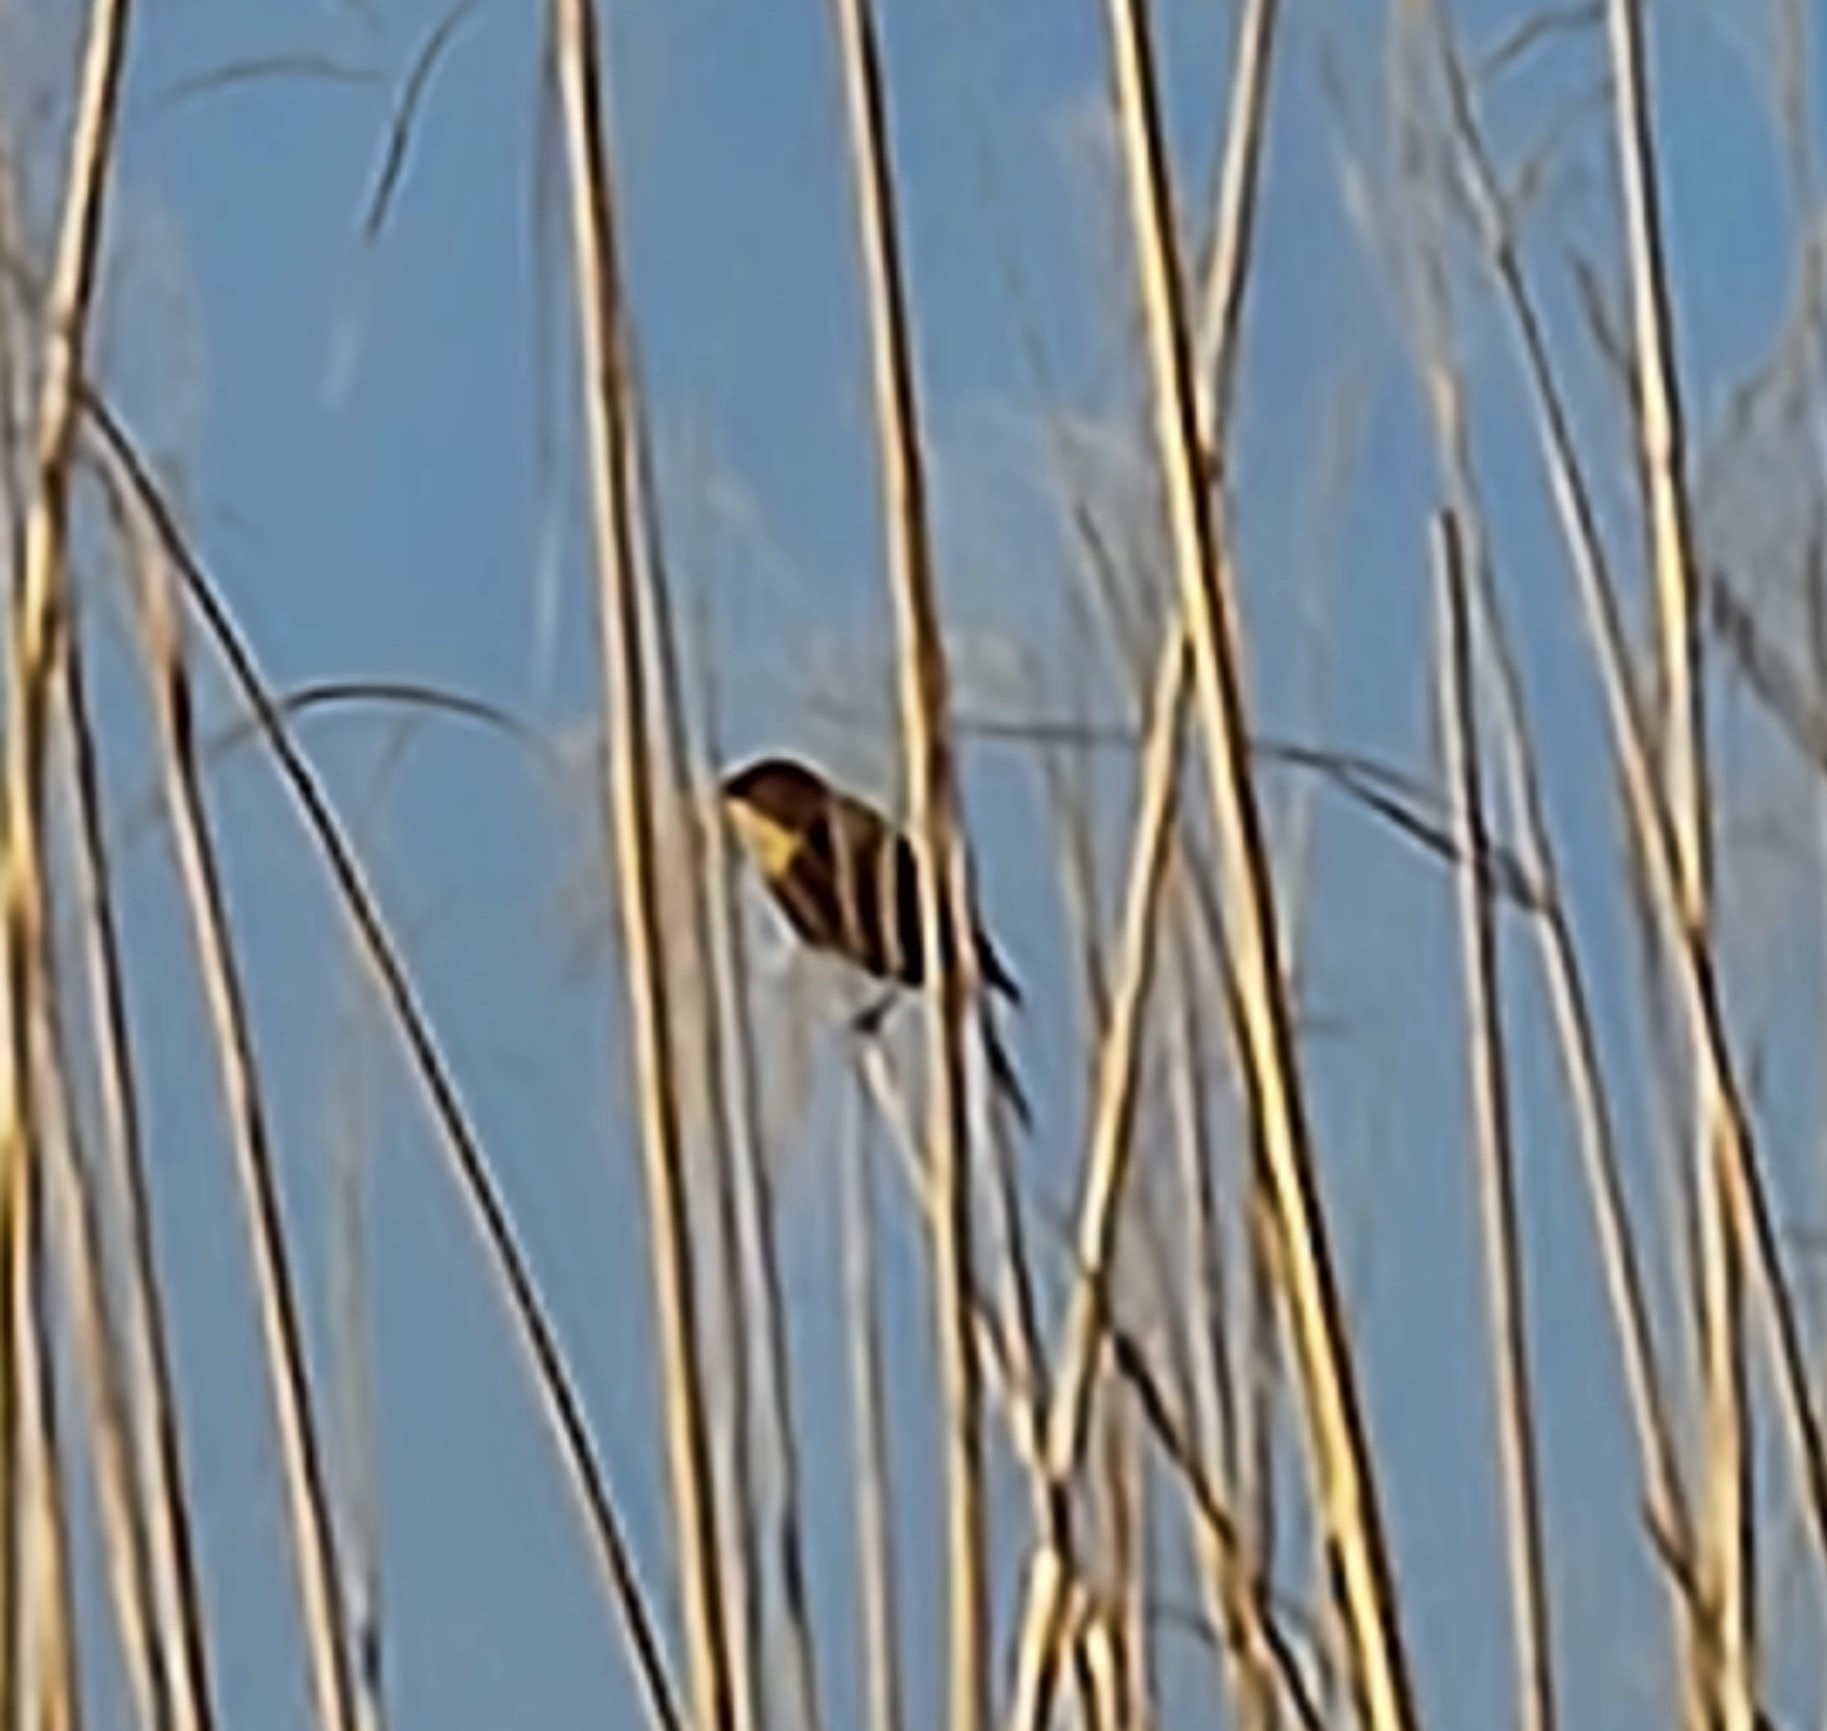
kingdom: Animalia
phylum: Chordata
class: Aves
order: Passeriformes
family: Icteridae
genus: Xanthocephalus
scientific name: Xanthocephalus xanthocephalus
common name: Yellow-headed blackbird
